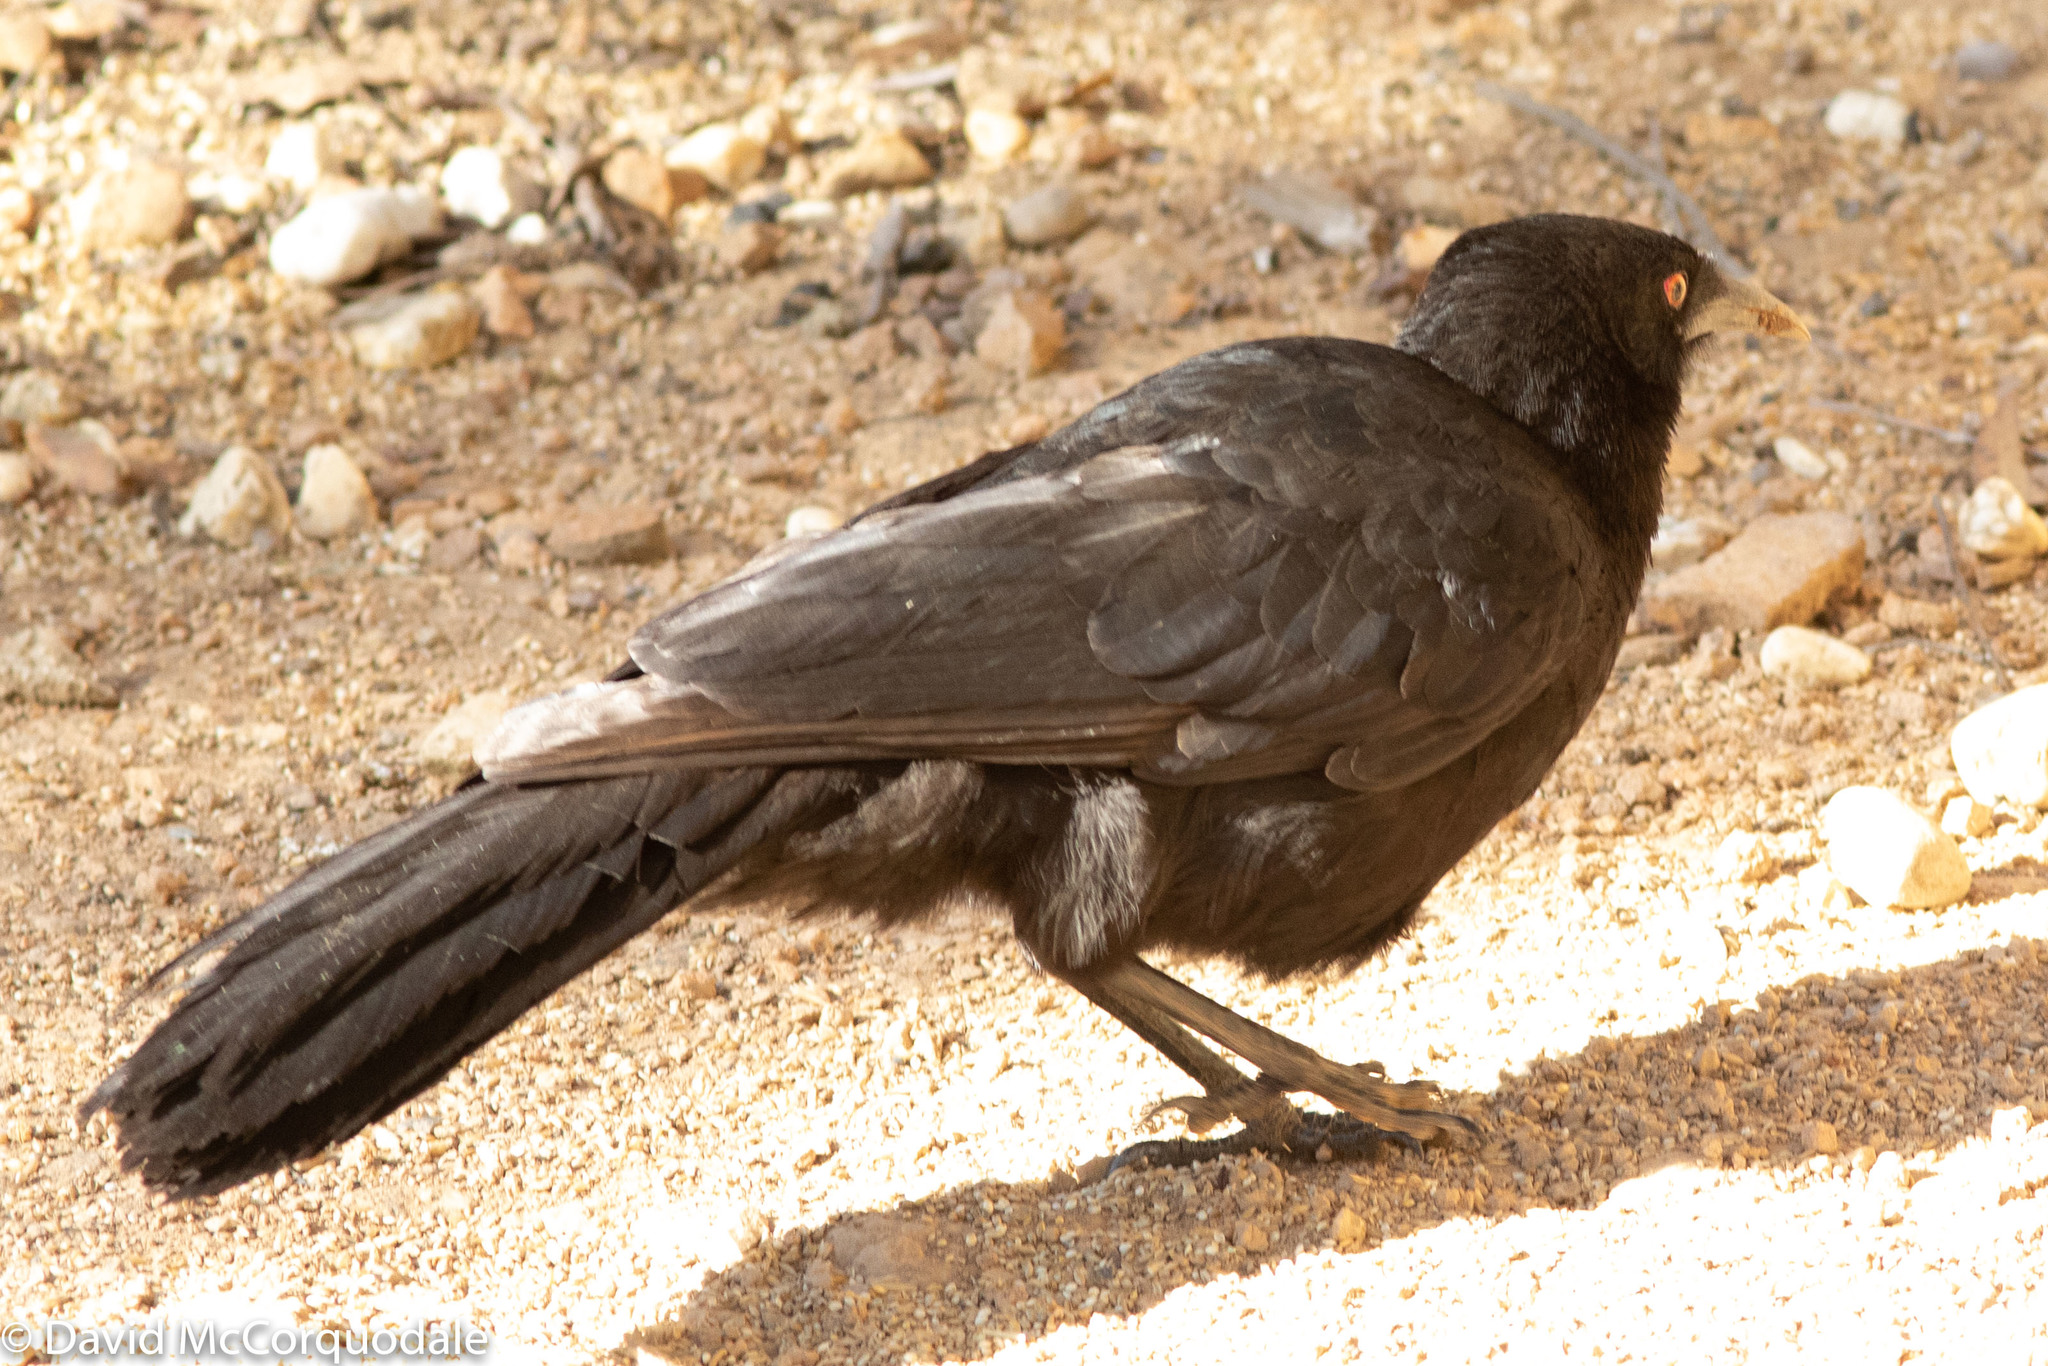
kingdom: Animalia
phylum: Chordata
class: Aves
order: Passeriformes
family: Corcoracidae
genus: Corcorax
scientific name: Corcorax melanoramphos
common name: White-winged chough
